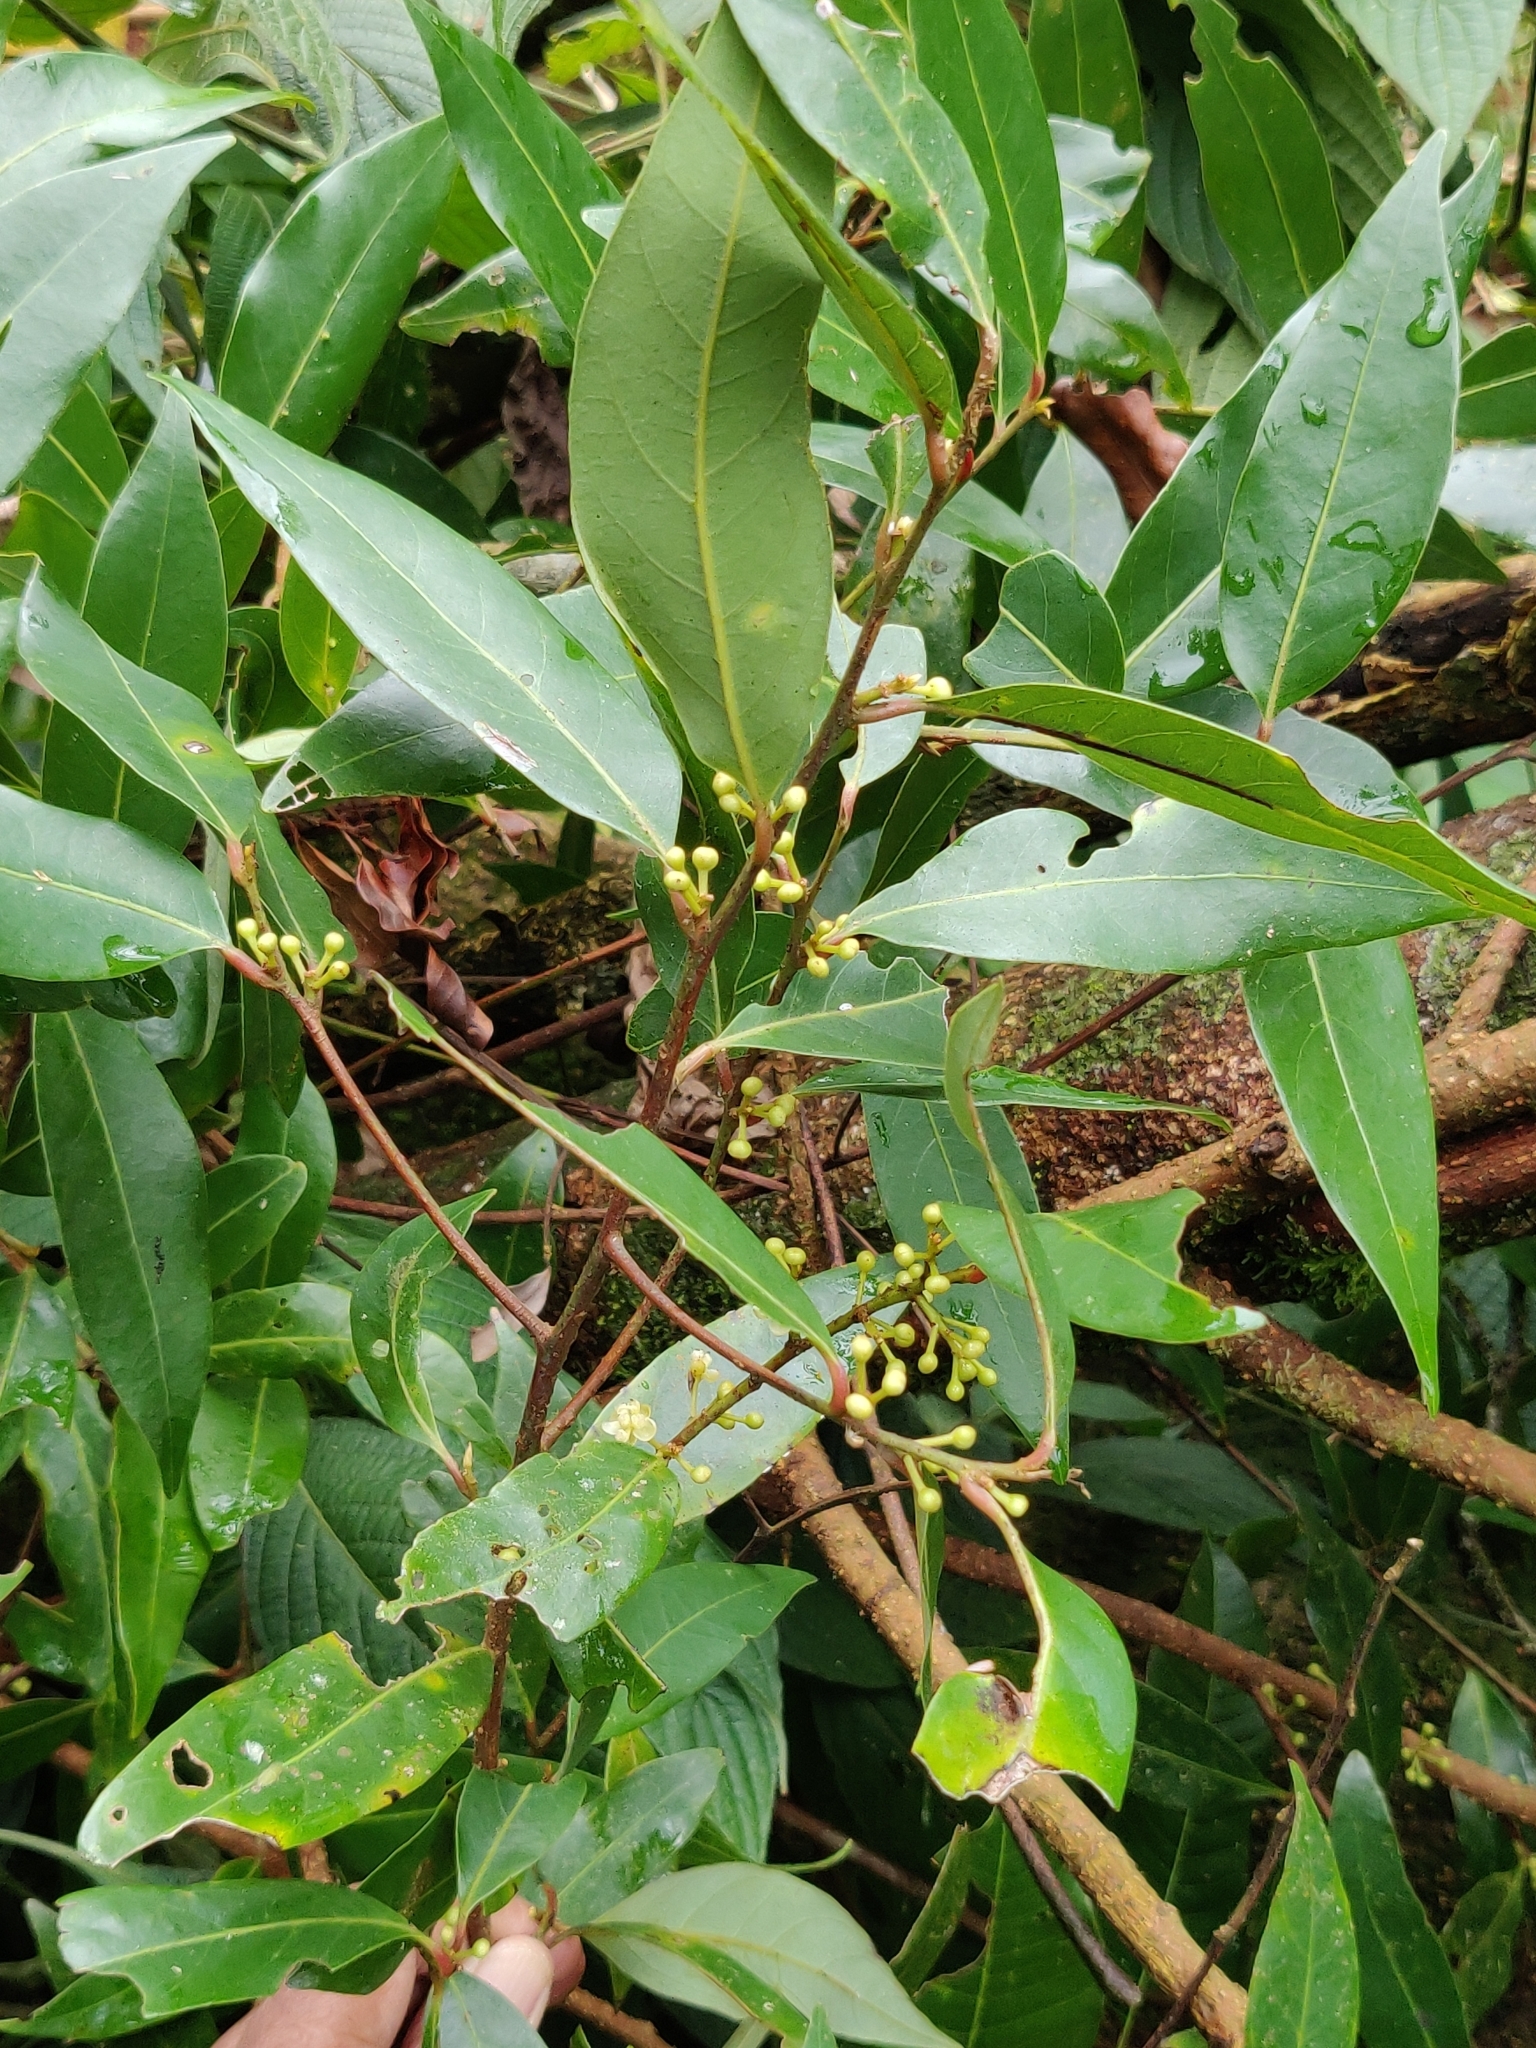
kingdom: Plantae
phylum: Tracheophyta
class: Magnoliopsida
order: Laurales
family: Lauraceae
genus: Litsea
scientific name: Litsea udayanii
